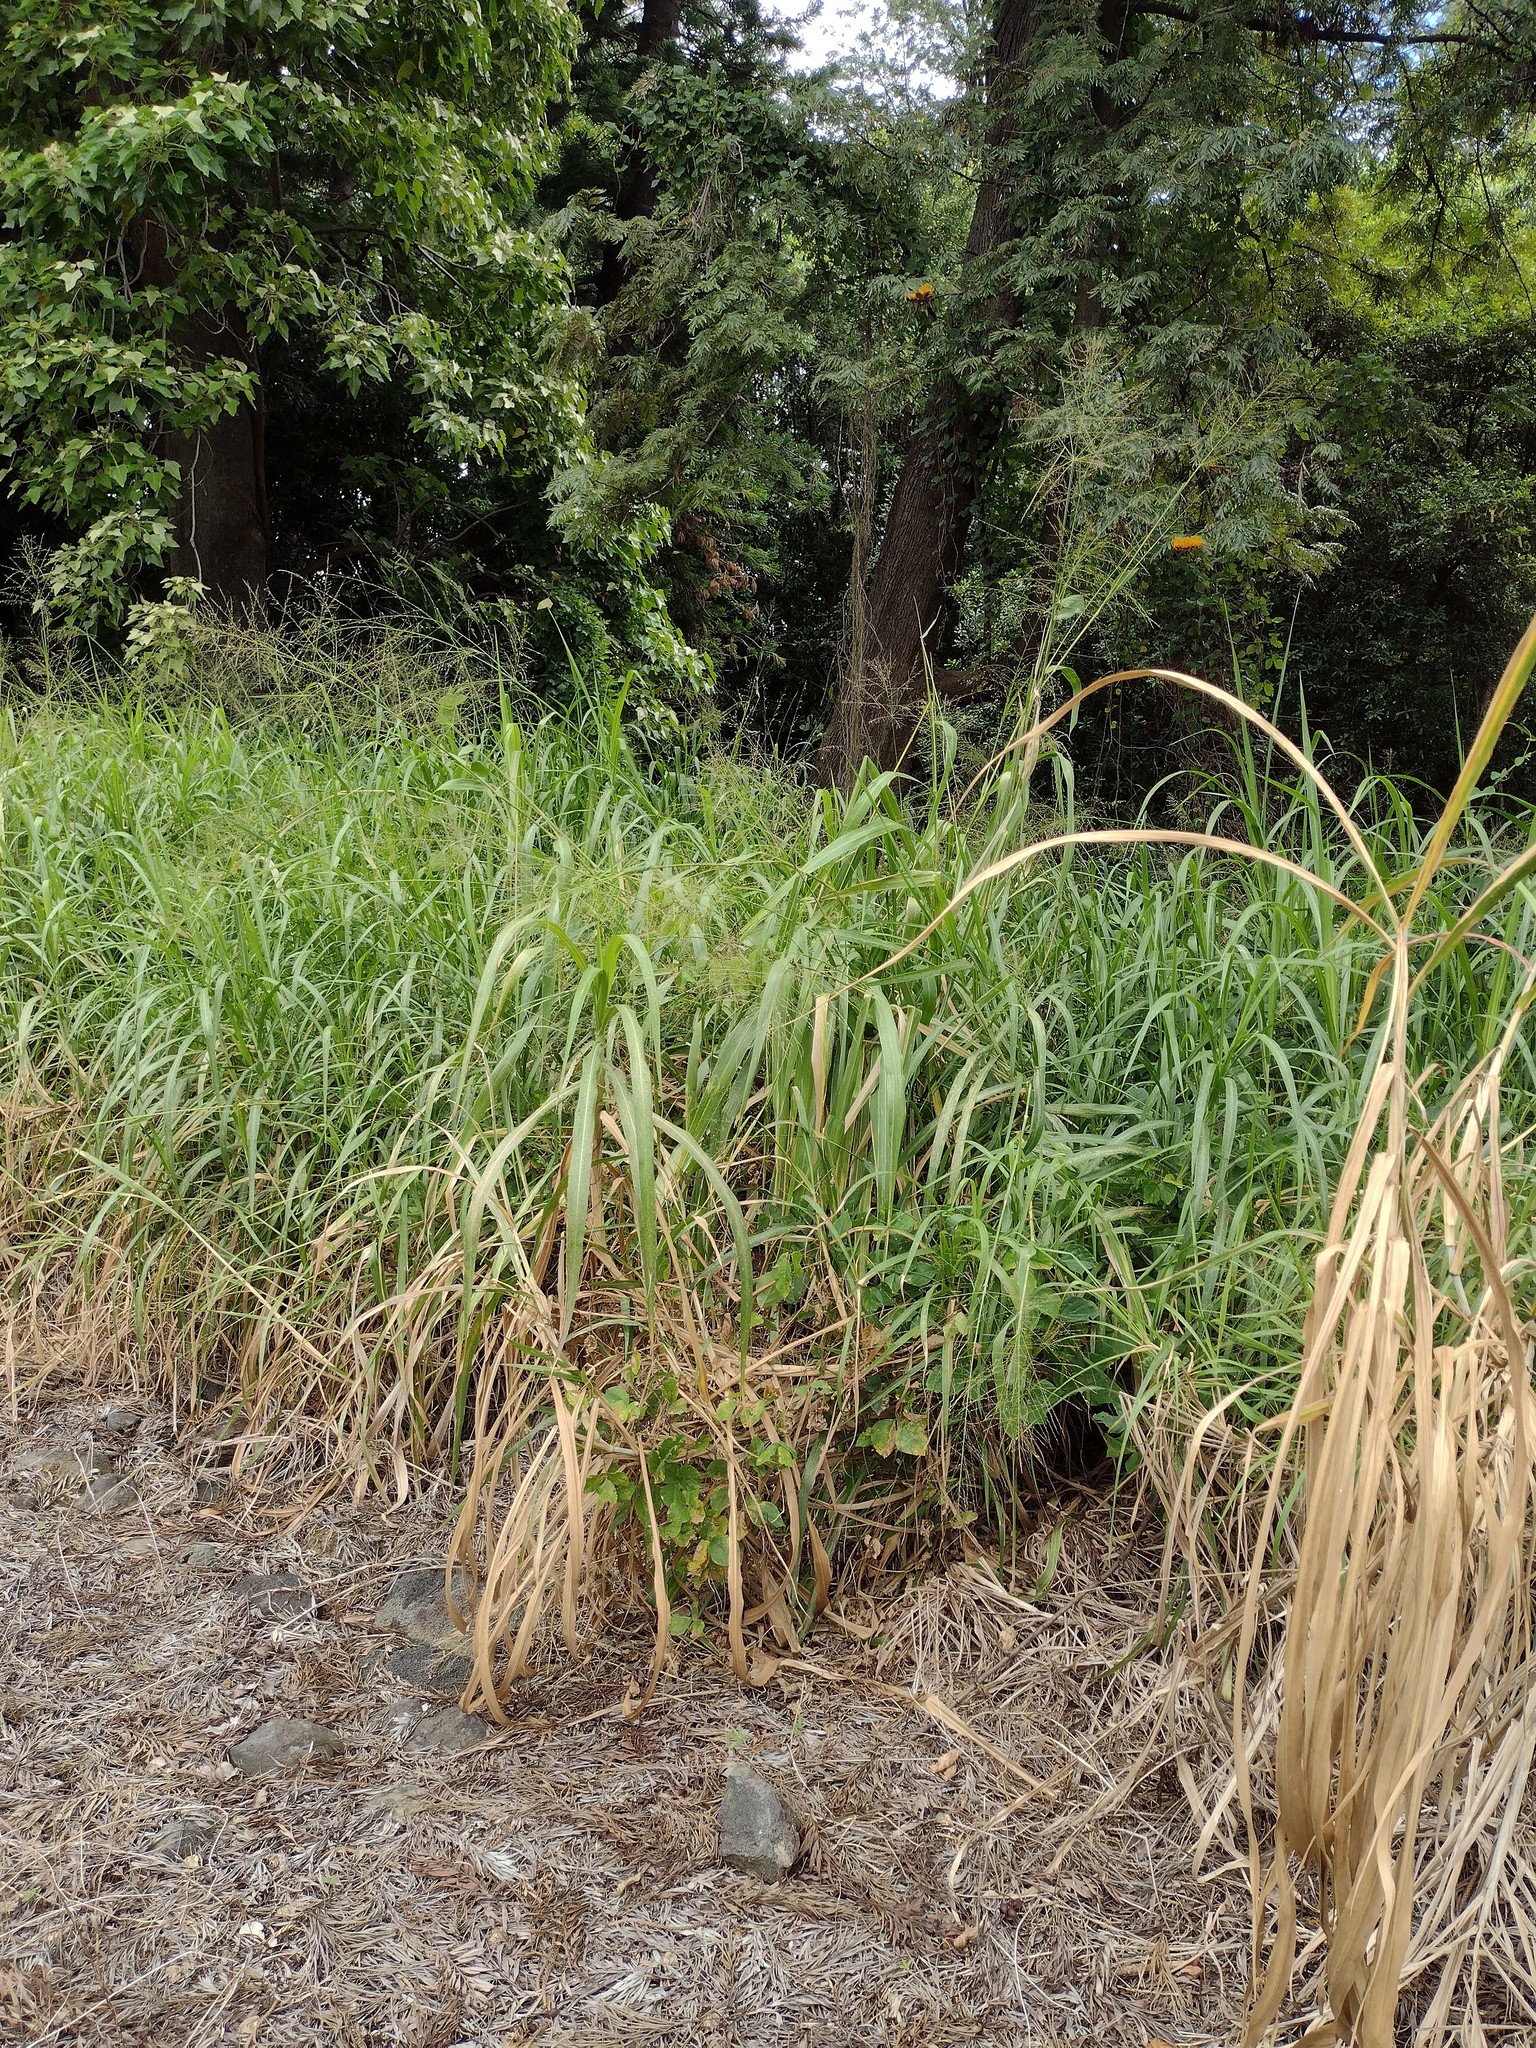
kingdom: Plantae
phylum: Tracheophyta
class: Liliopsida
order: Poales
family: Poaceae
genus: Megathyrsus
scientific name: Megathyrsus maximus
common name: Guineagrass
